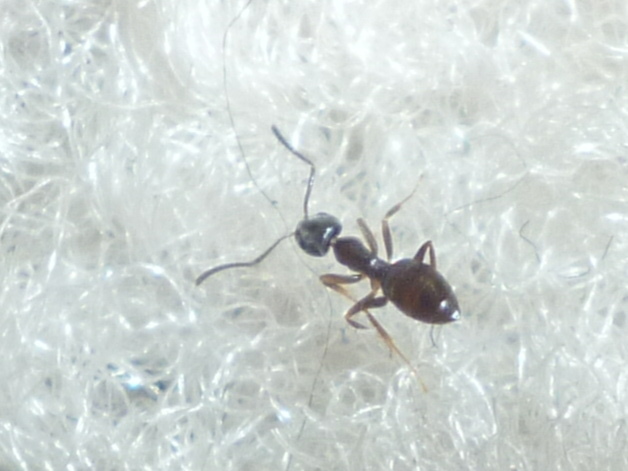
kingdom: Animalia
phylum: Arthropoda
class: Insecta
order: Hymenoptera
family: Formicidae
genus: Tapinoma
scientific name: Tapinoma sessile
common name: Odorous house ant
